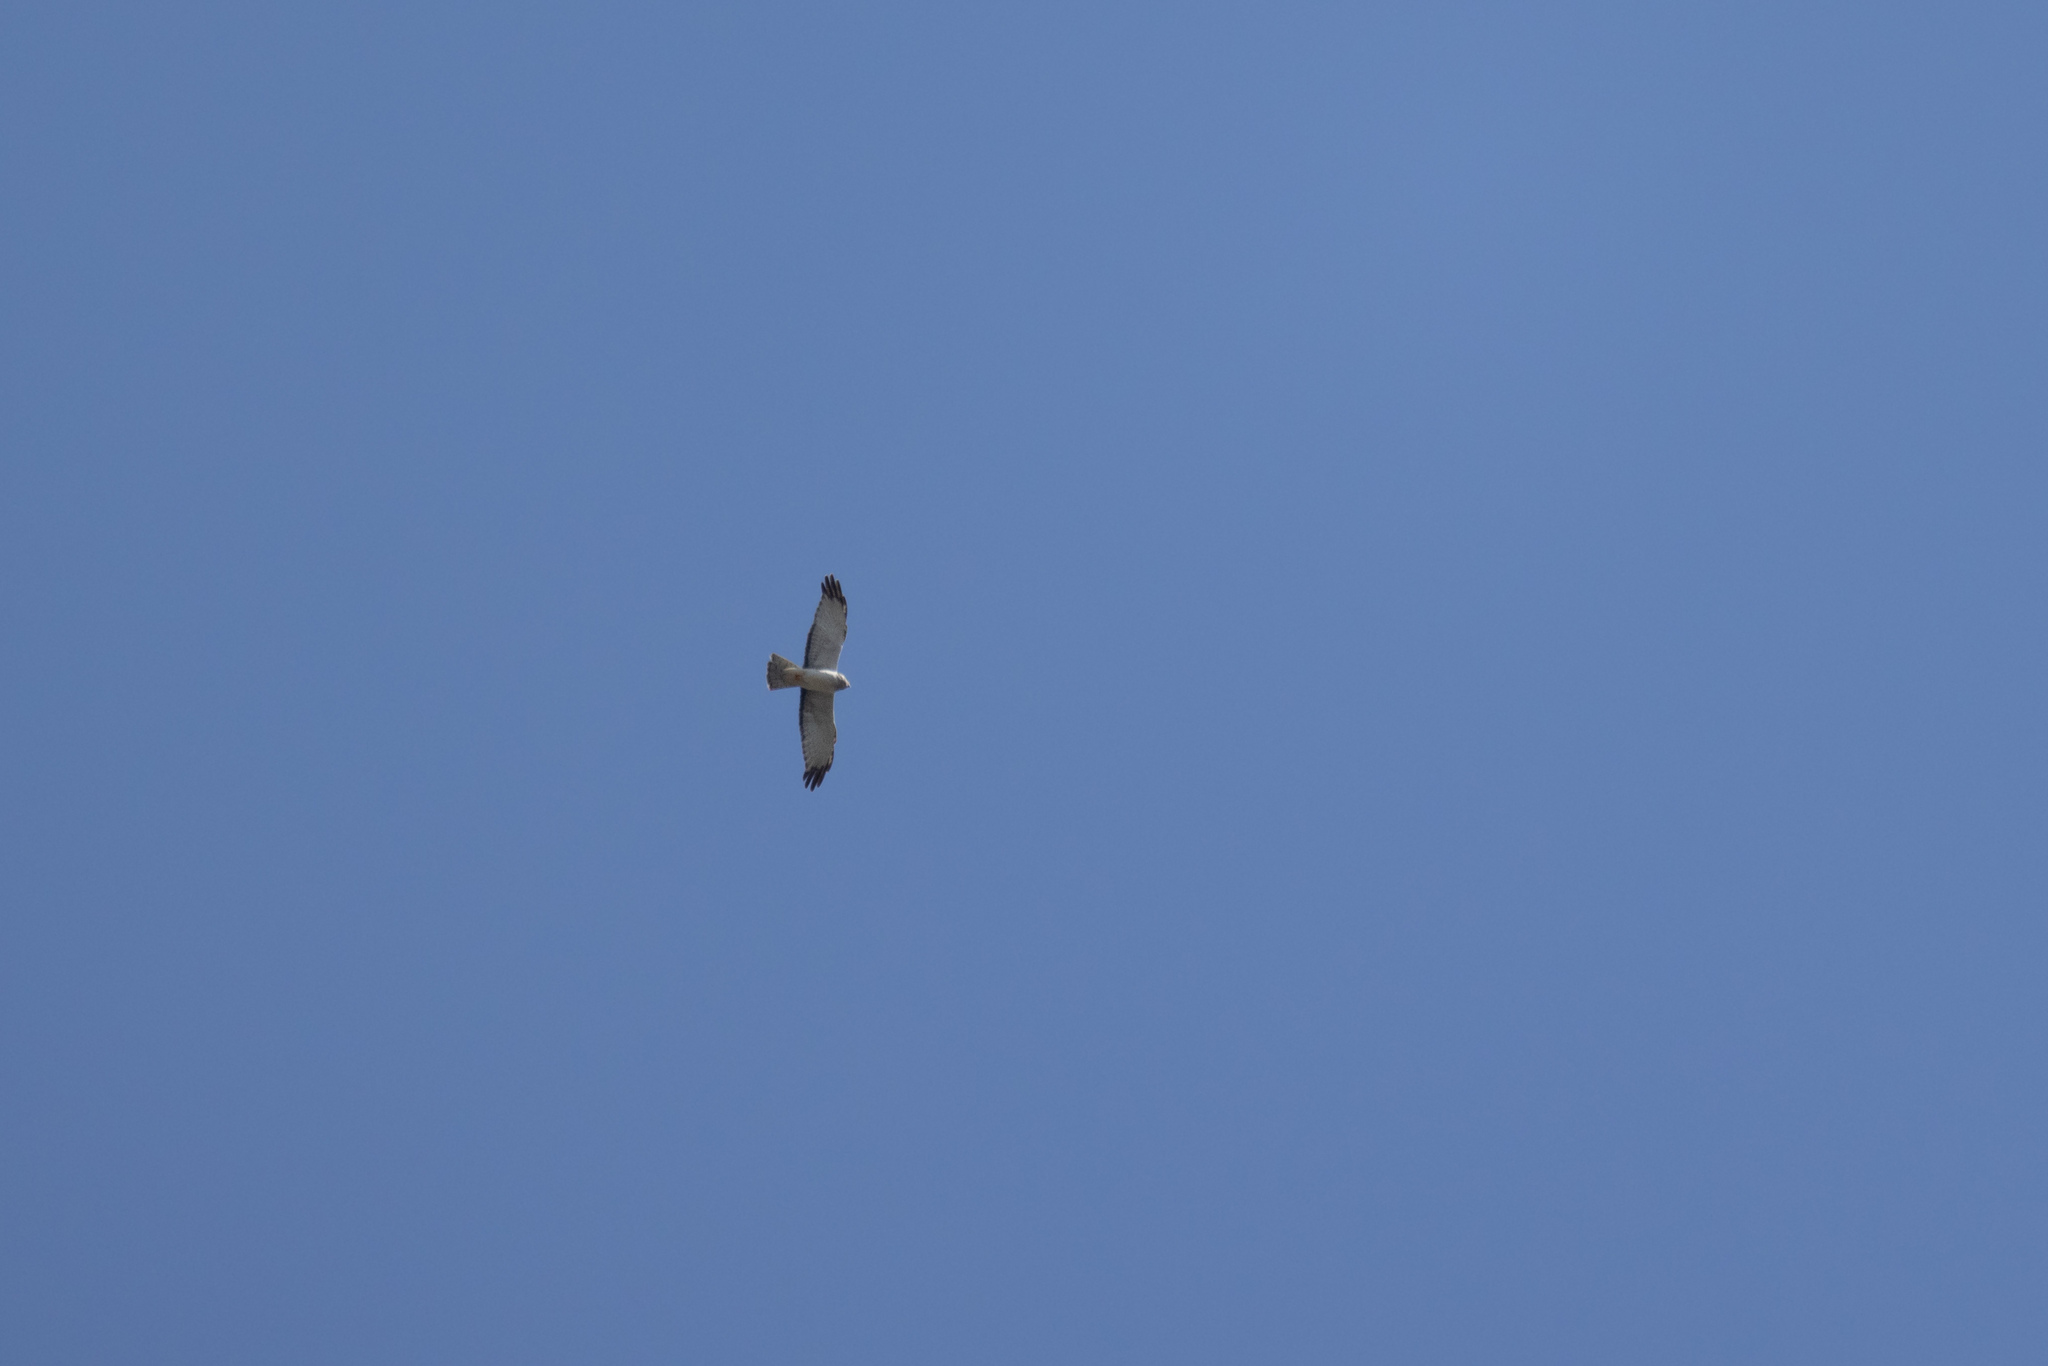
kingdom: Animalia
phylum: Chordata
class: Aves
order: Accipitriformes
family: Accipitridae
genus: Circus
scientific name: Circus cyaneus
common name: Hen harrier
